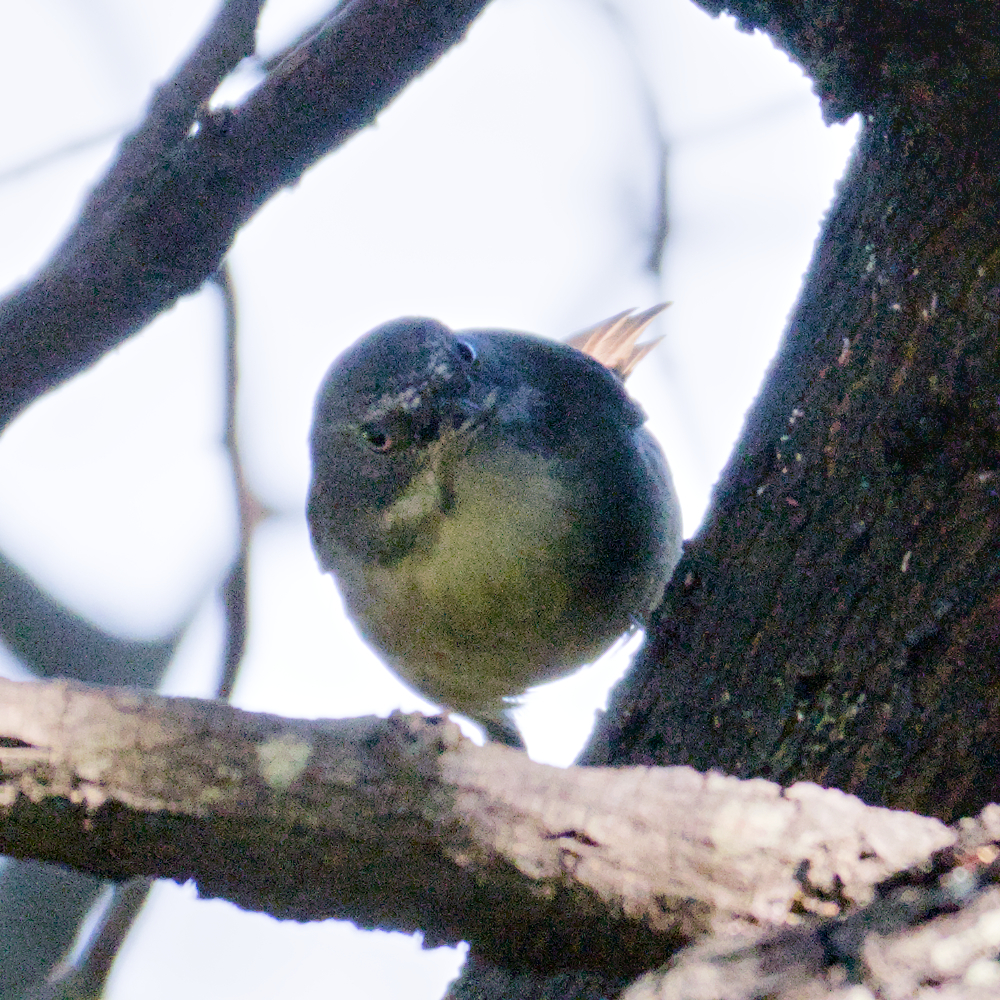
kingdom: Animalia
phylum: Chordata
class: Aves
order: Passeriformes
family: Acanthizidae
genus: Sericornis
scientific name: Sericornis frontalis
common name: White-browed scrubwren
